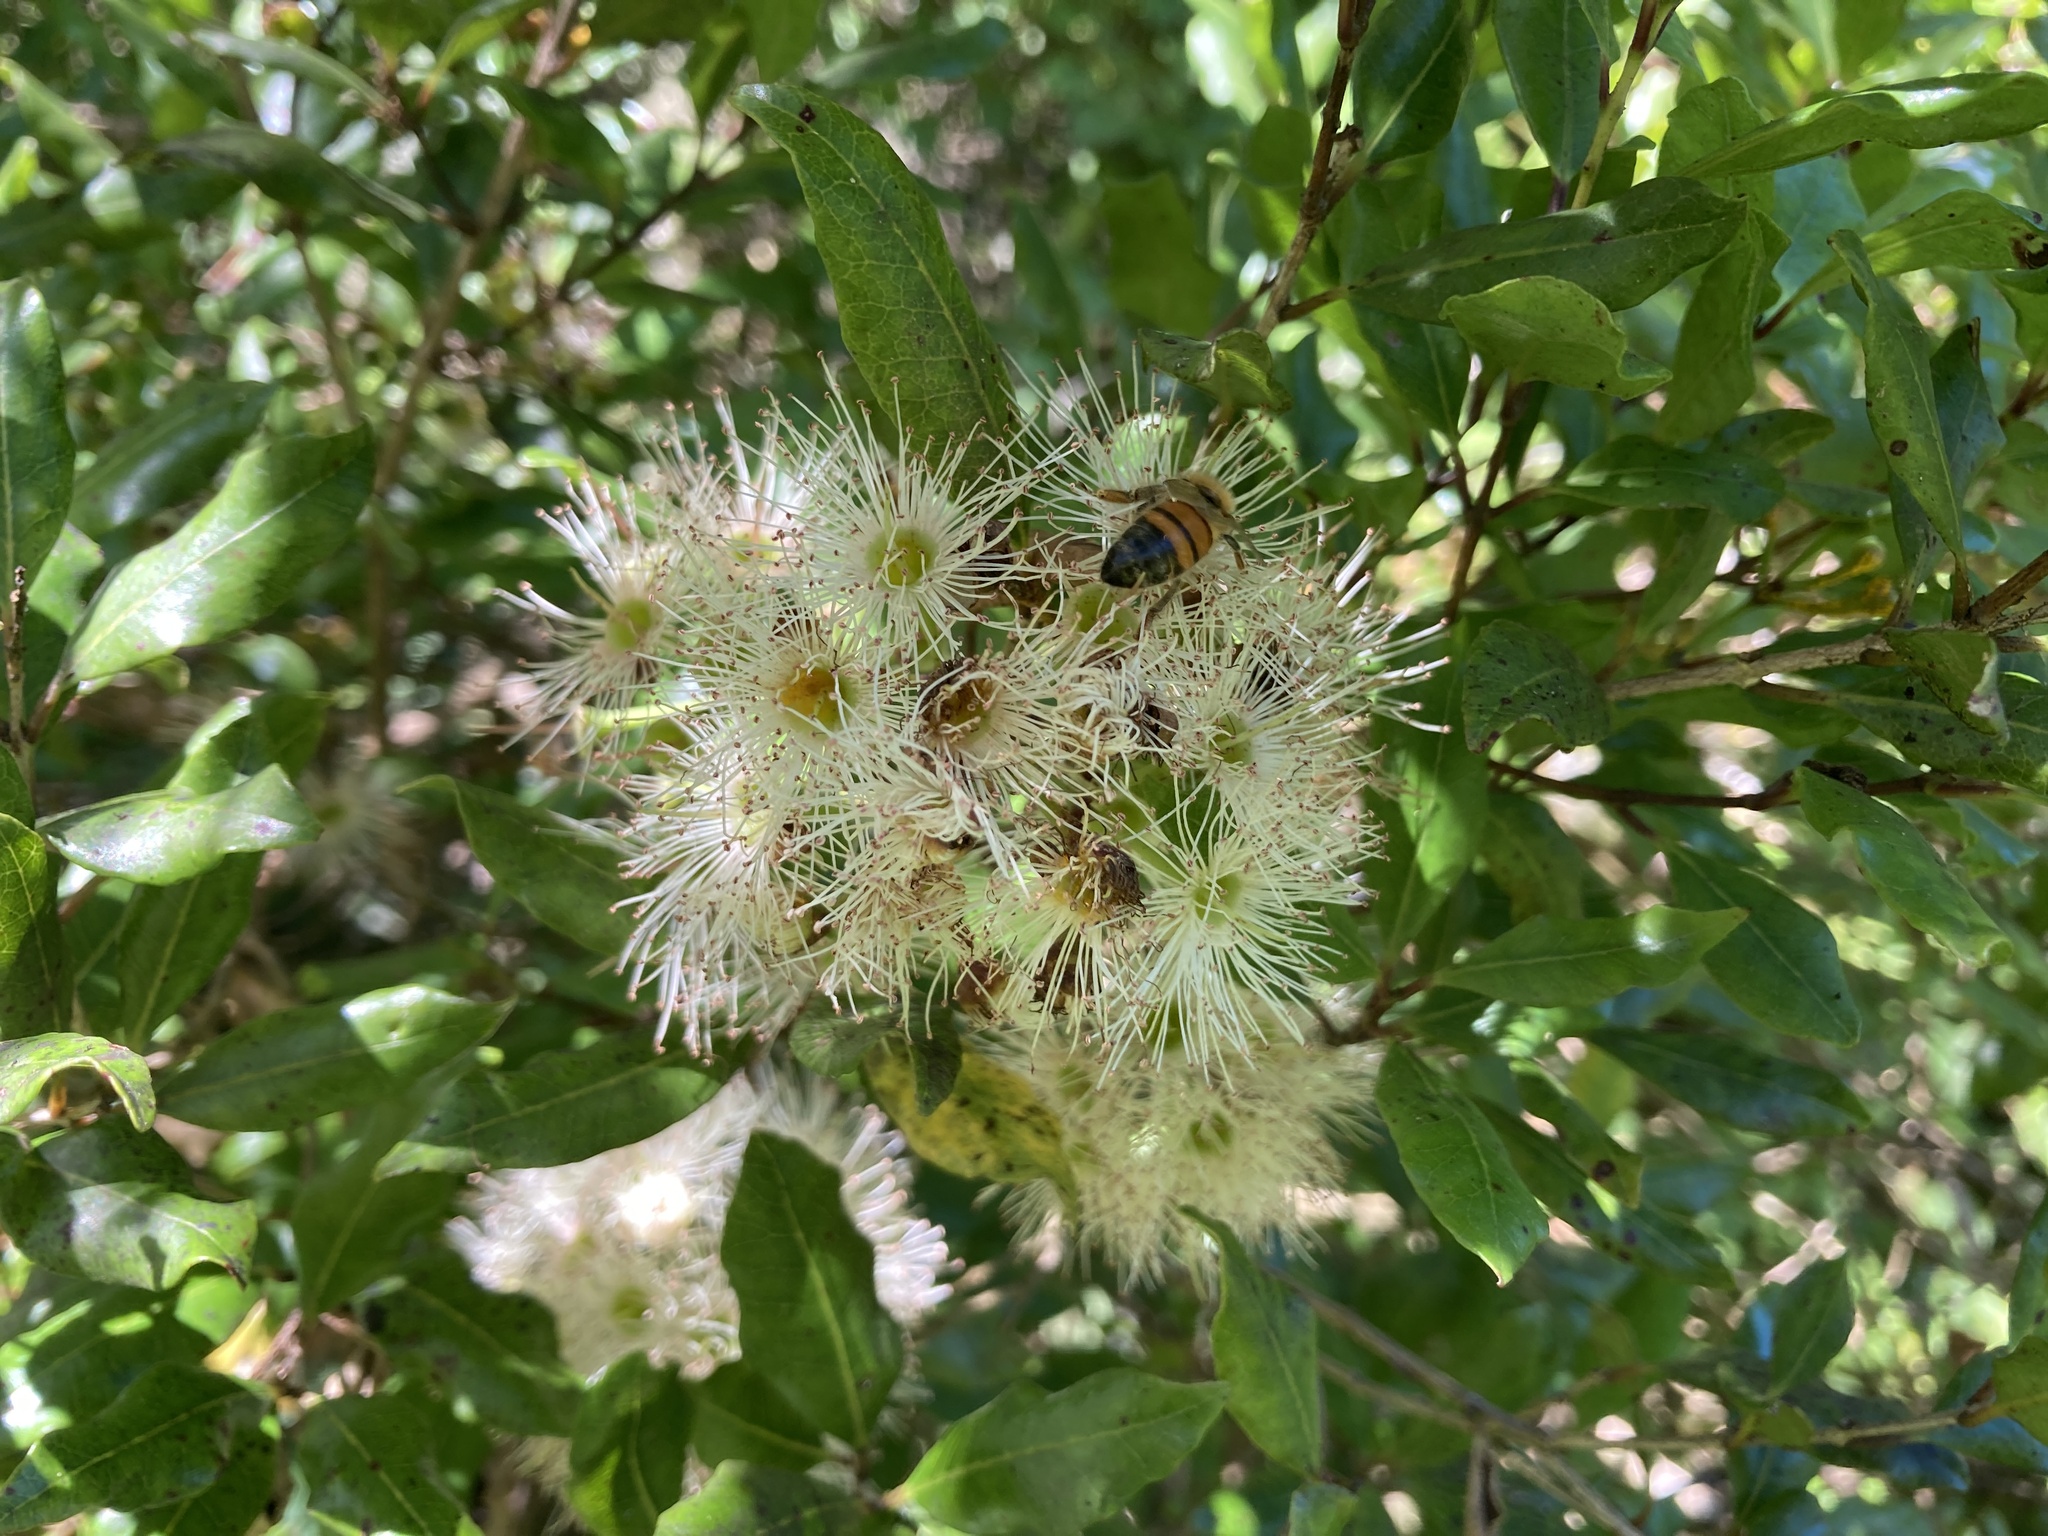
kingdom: Plantae
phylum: Tracheophyta
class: Magnoliopsida
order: Myrtales
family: Myrtaceae
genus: Syzygium
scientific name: Syzygium maire
